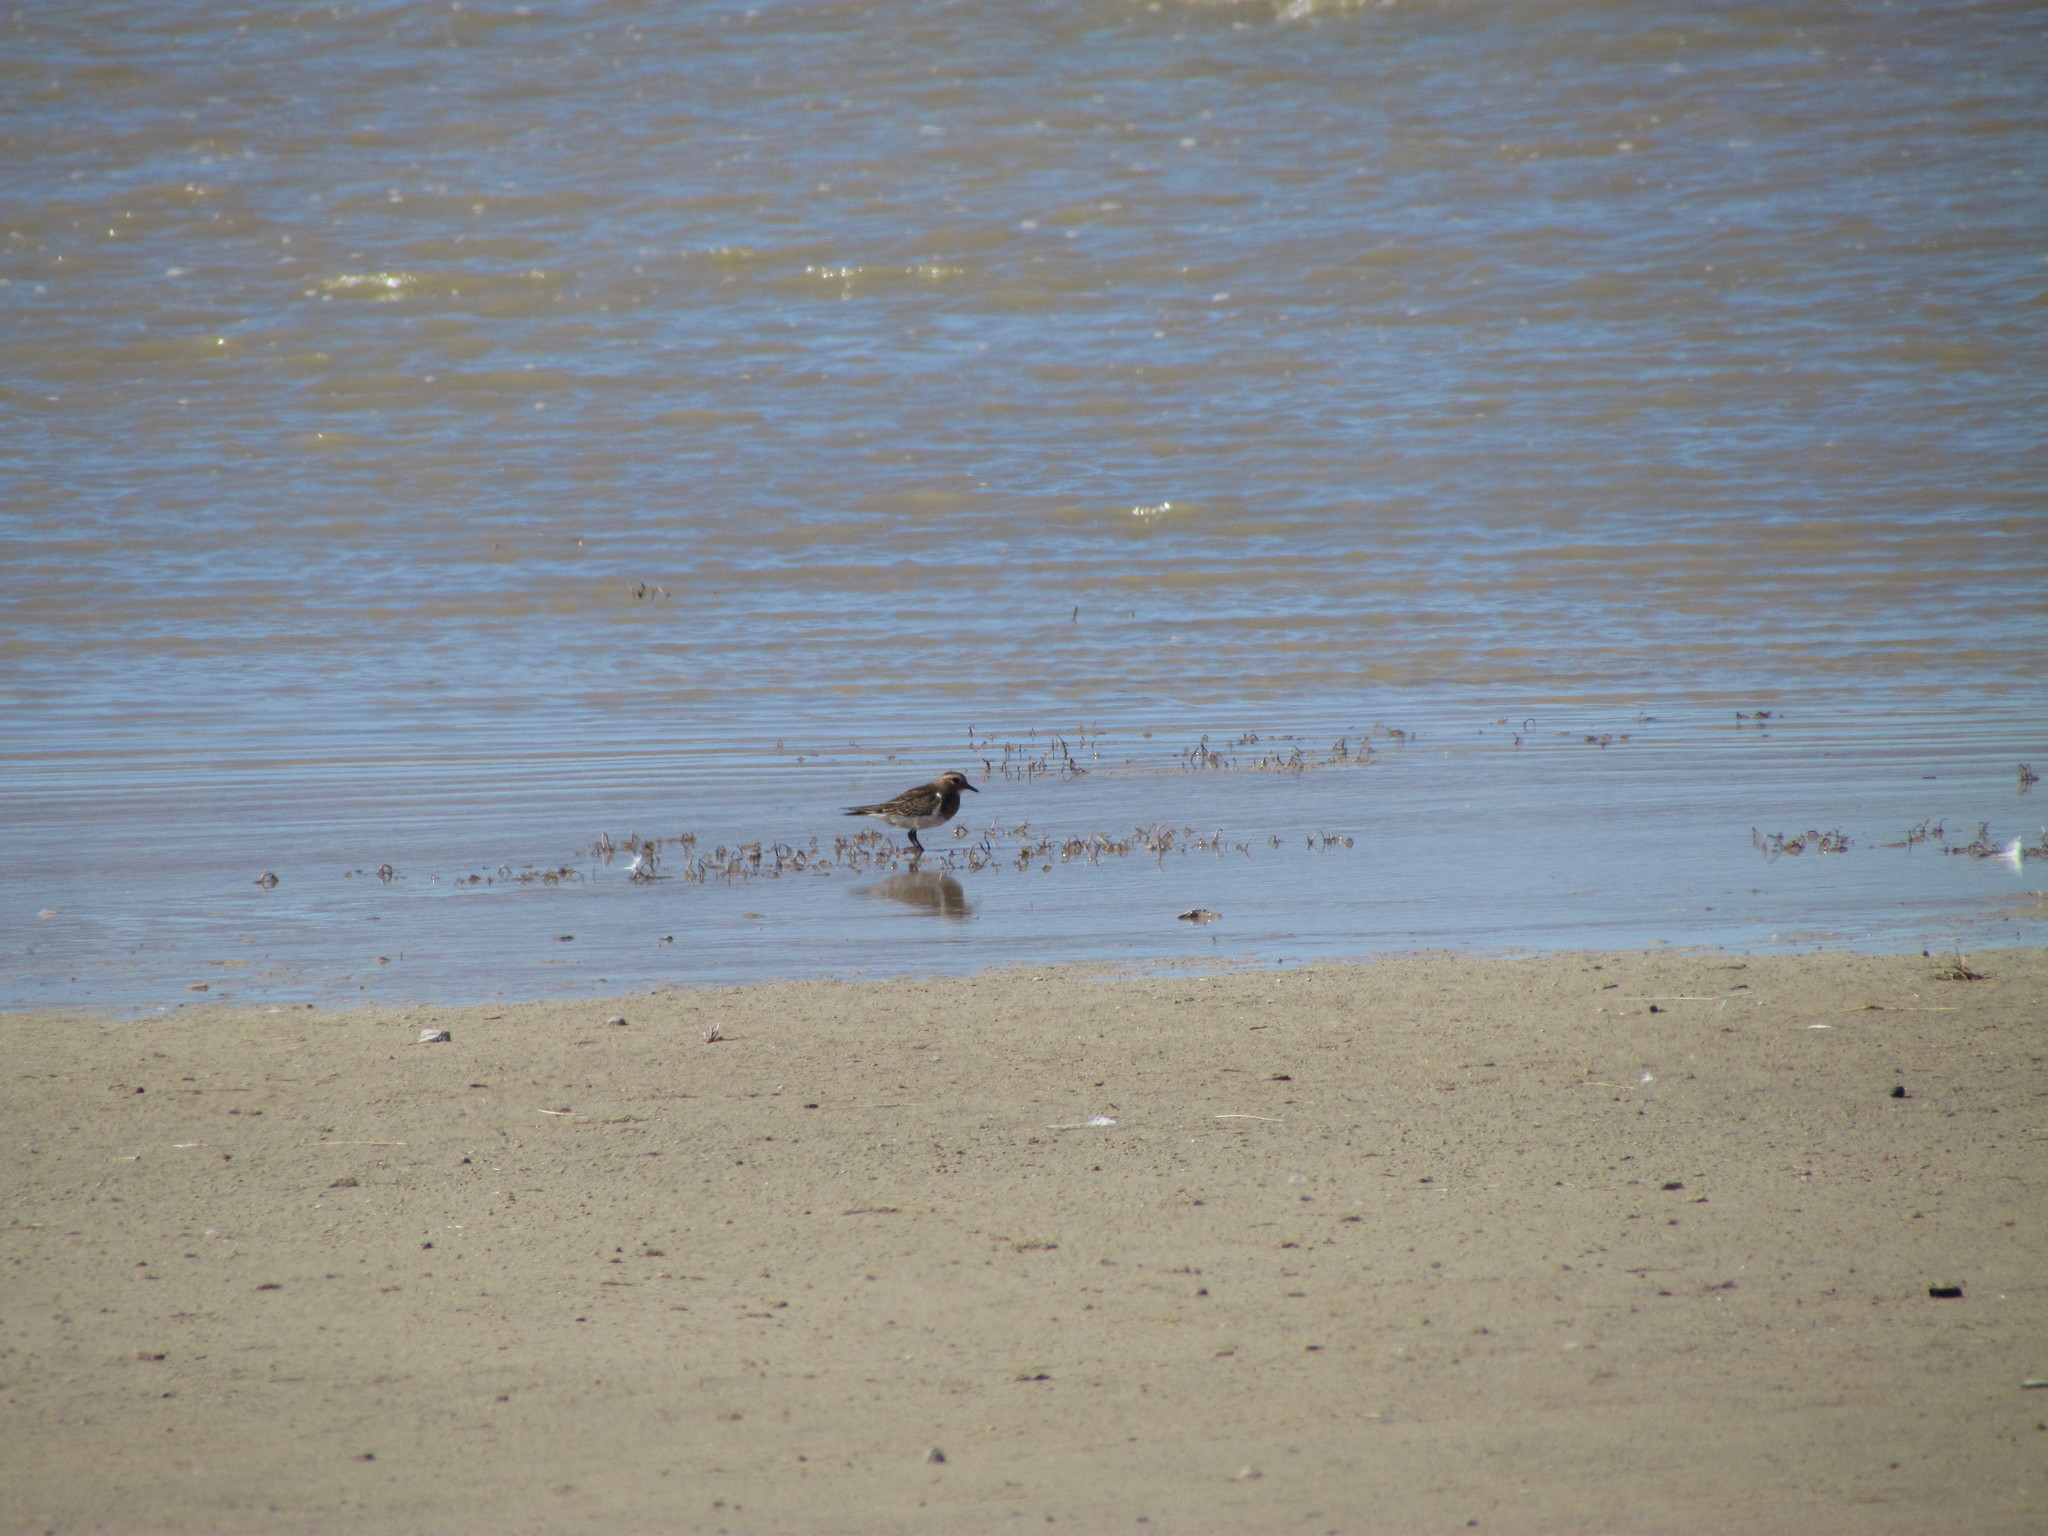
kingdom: Animalia
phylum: Chordata
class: Aves
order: Charadriiformes
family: Charadriidae
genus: Charadrius
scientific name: Charadrius modestus
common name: Rufous-chested plover
